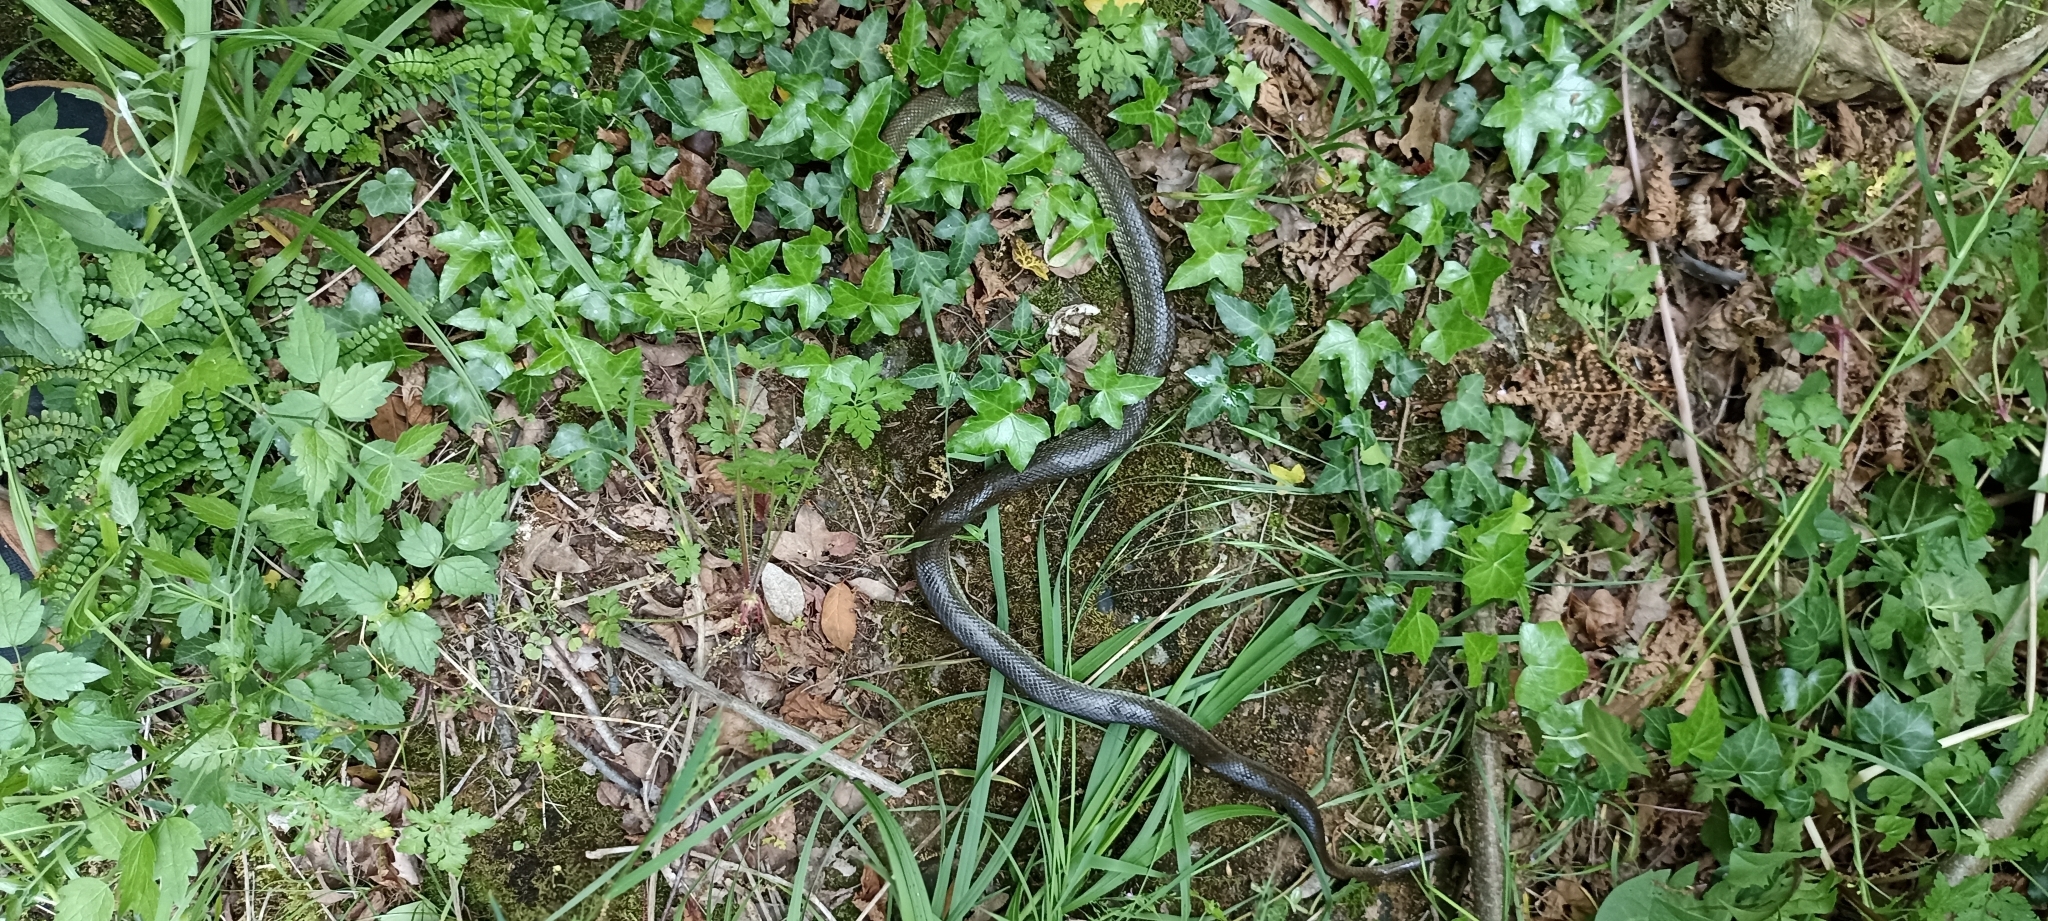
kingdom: Animalia
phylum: Chordata
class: Squamata
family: Colubridae
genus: Zamenis
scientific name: Zamenis longissimus
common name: Aesculapean snake
